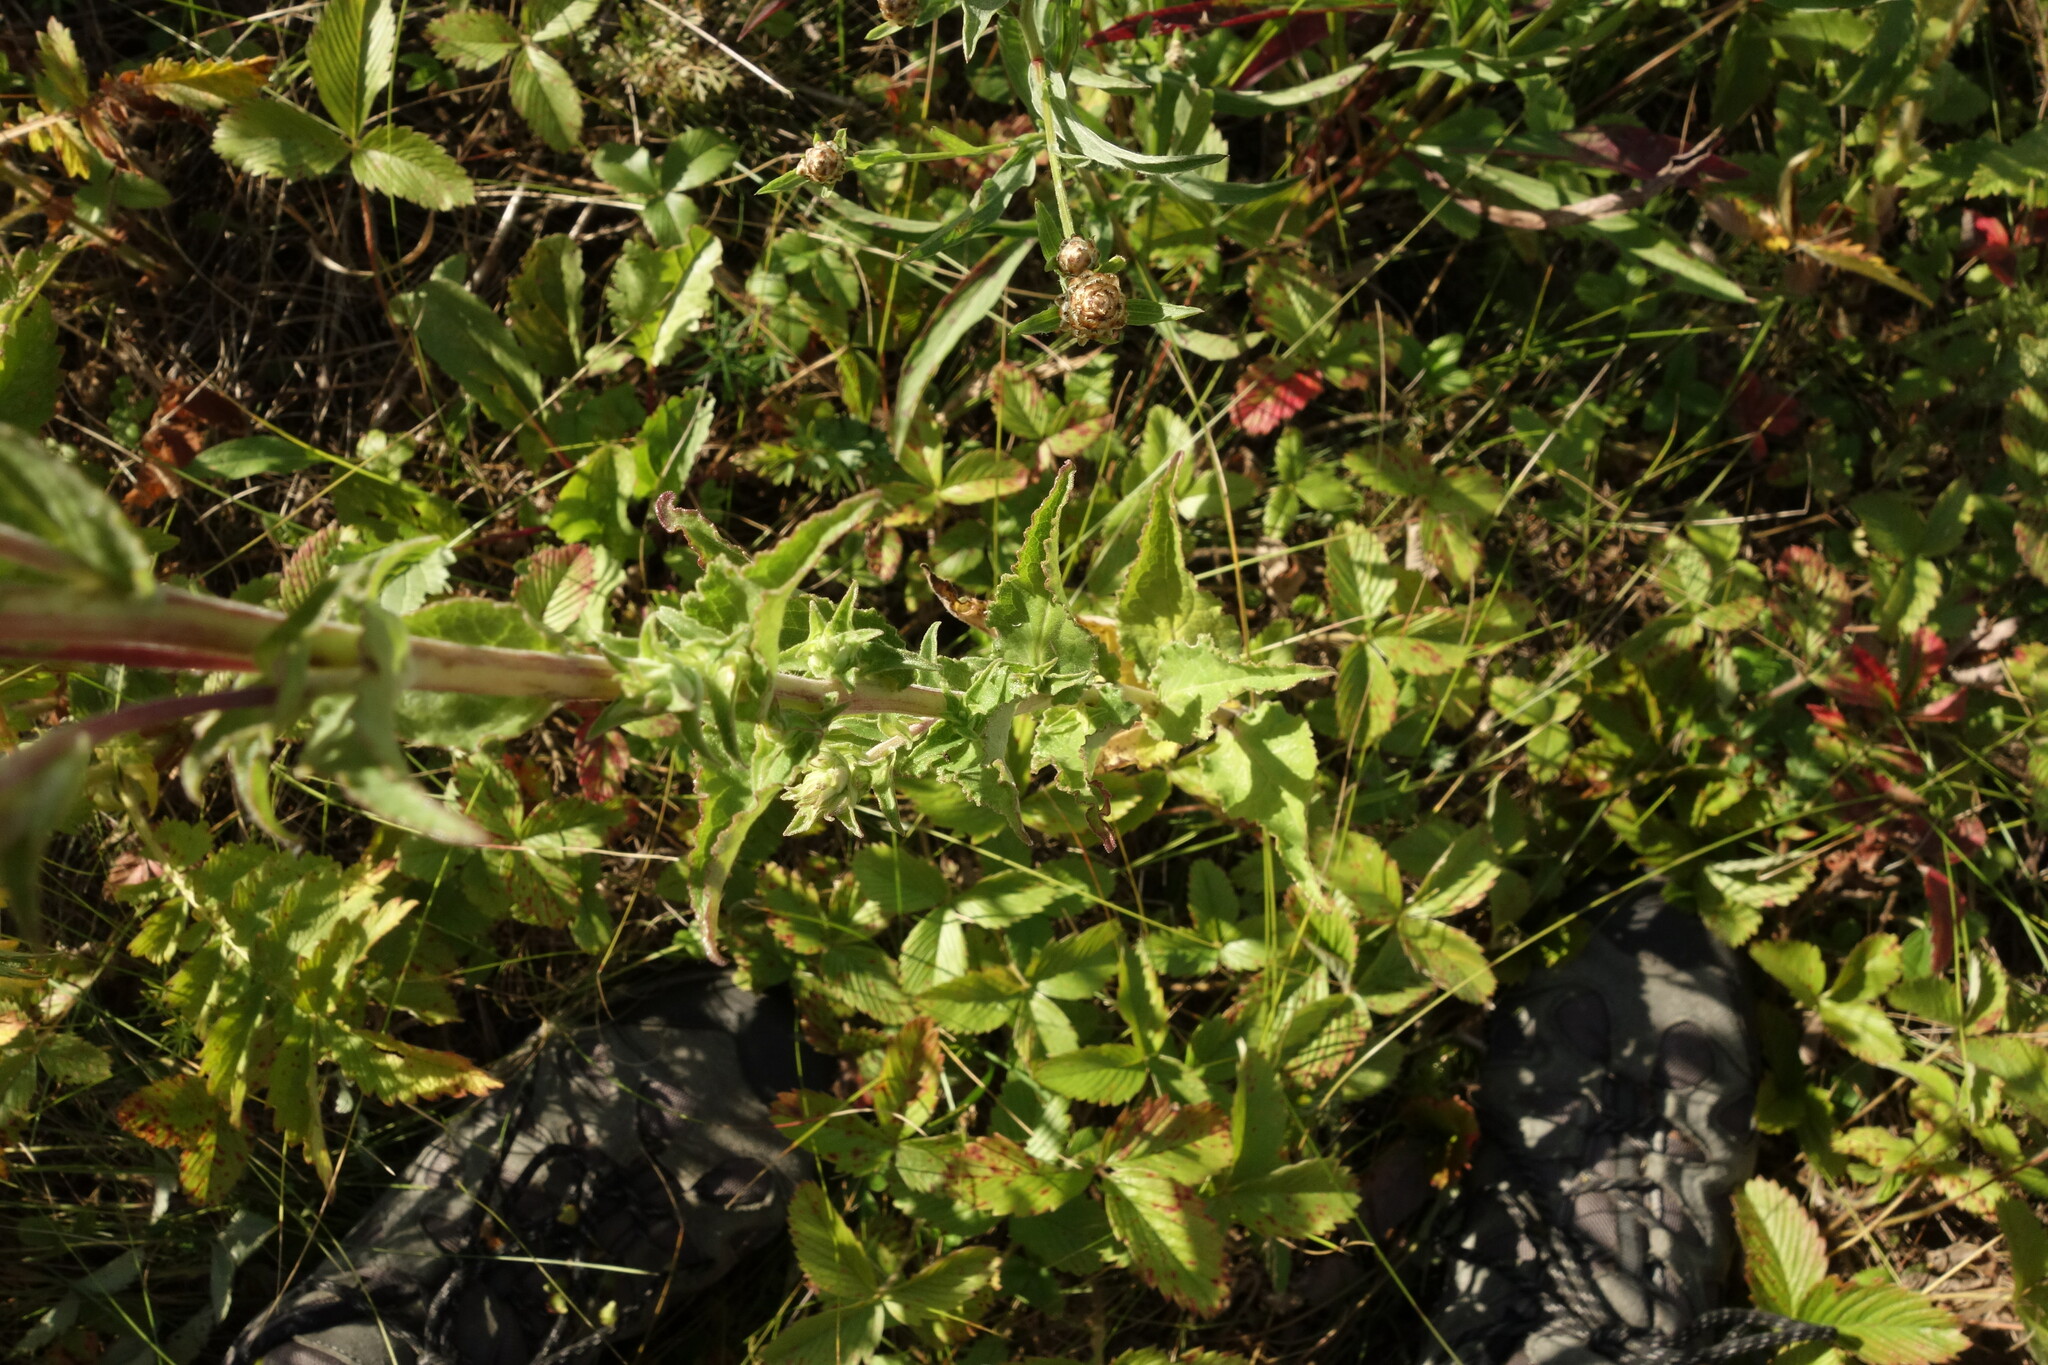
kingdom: Plantae
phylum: Tracheophyta
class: Magnoliopsida
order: Asterales
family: Campanulaceae
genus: Campanula
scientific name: Campanula glomerata
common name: Clustered bellflower
